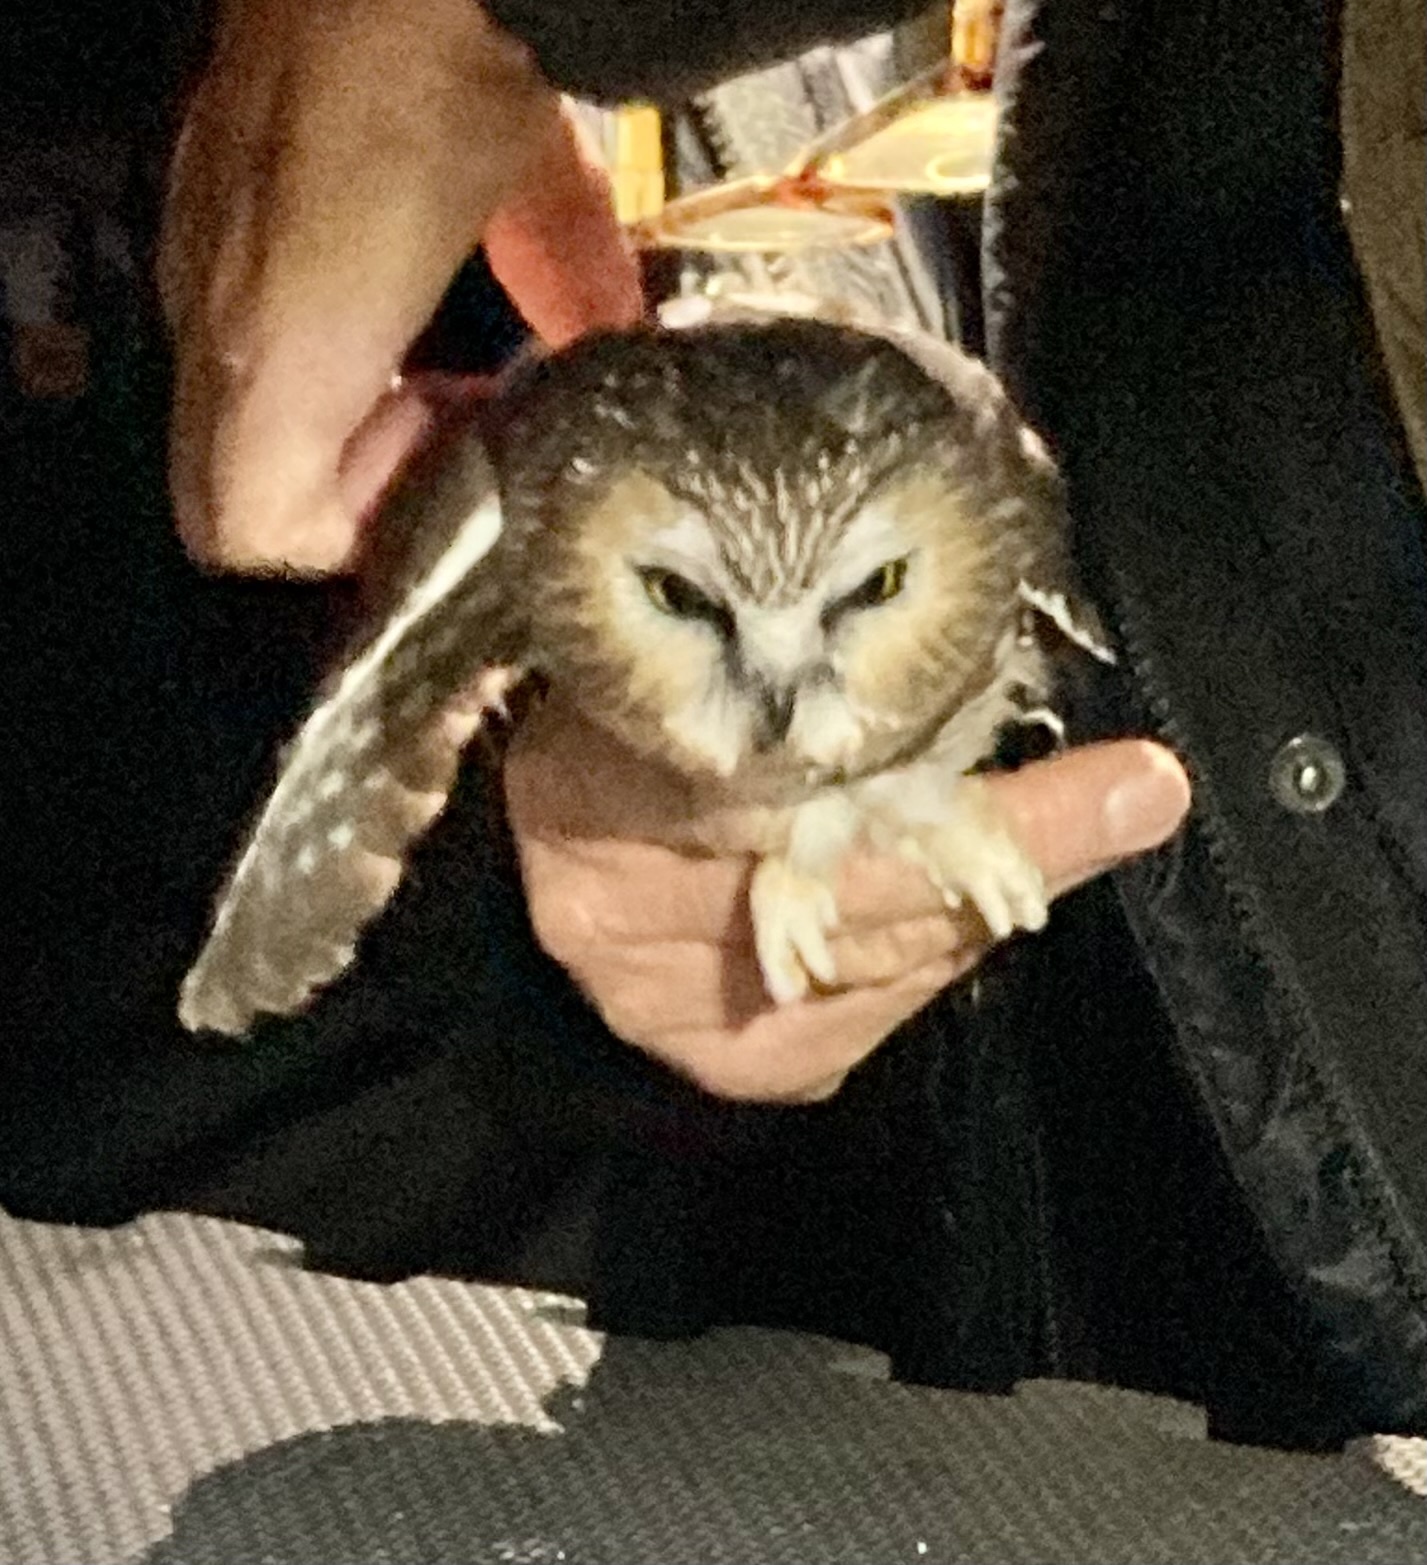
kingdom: Animalia
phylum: Chordata
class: Aves
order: Strigiformes
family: Strigidae
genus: Aegolius
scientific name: Aegolius acadicus
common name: Northern saw-whet owl
